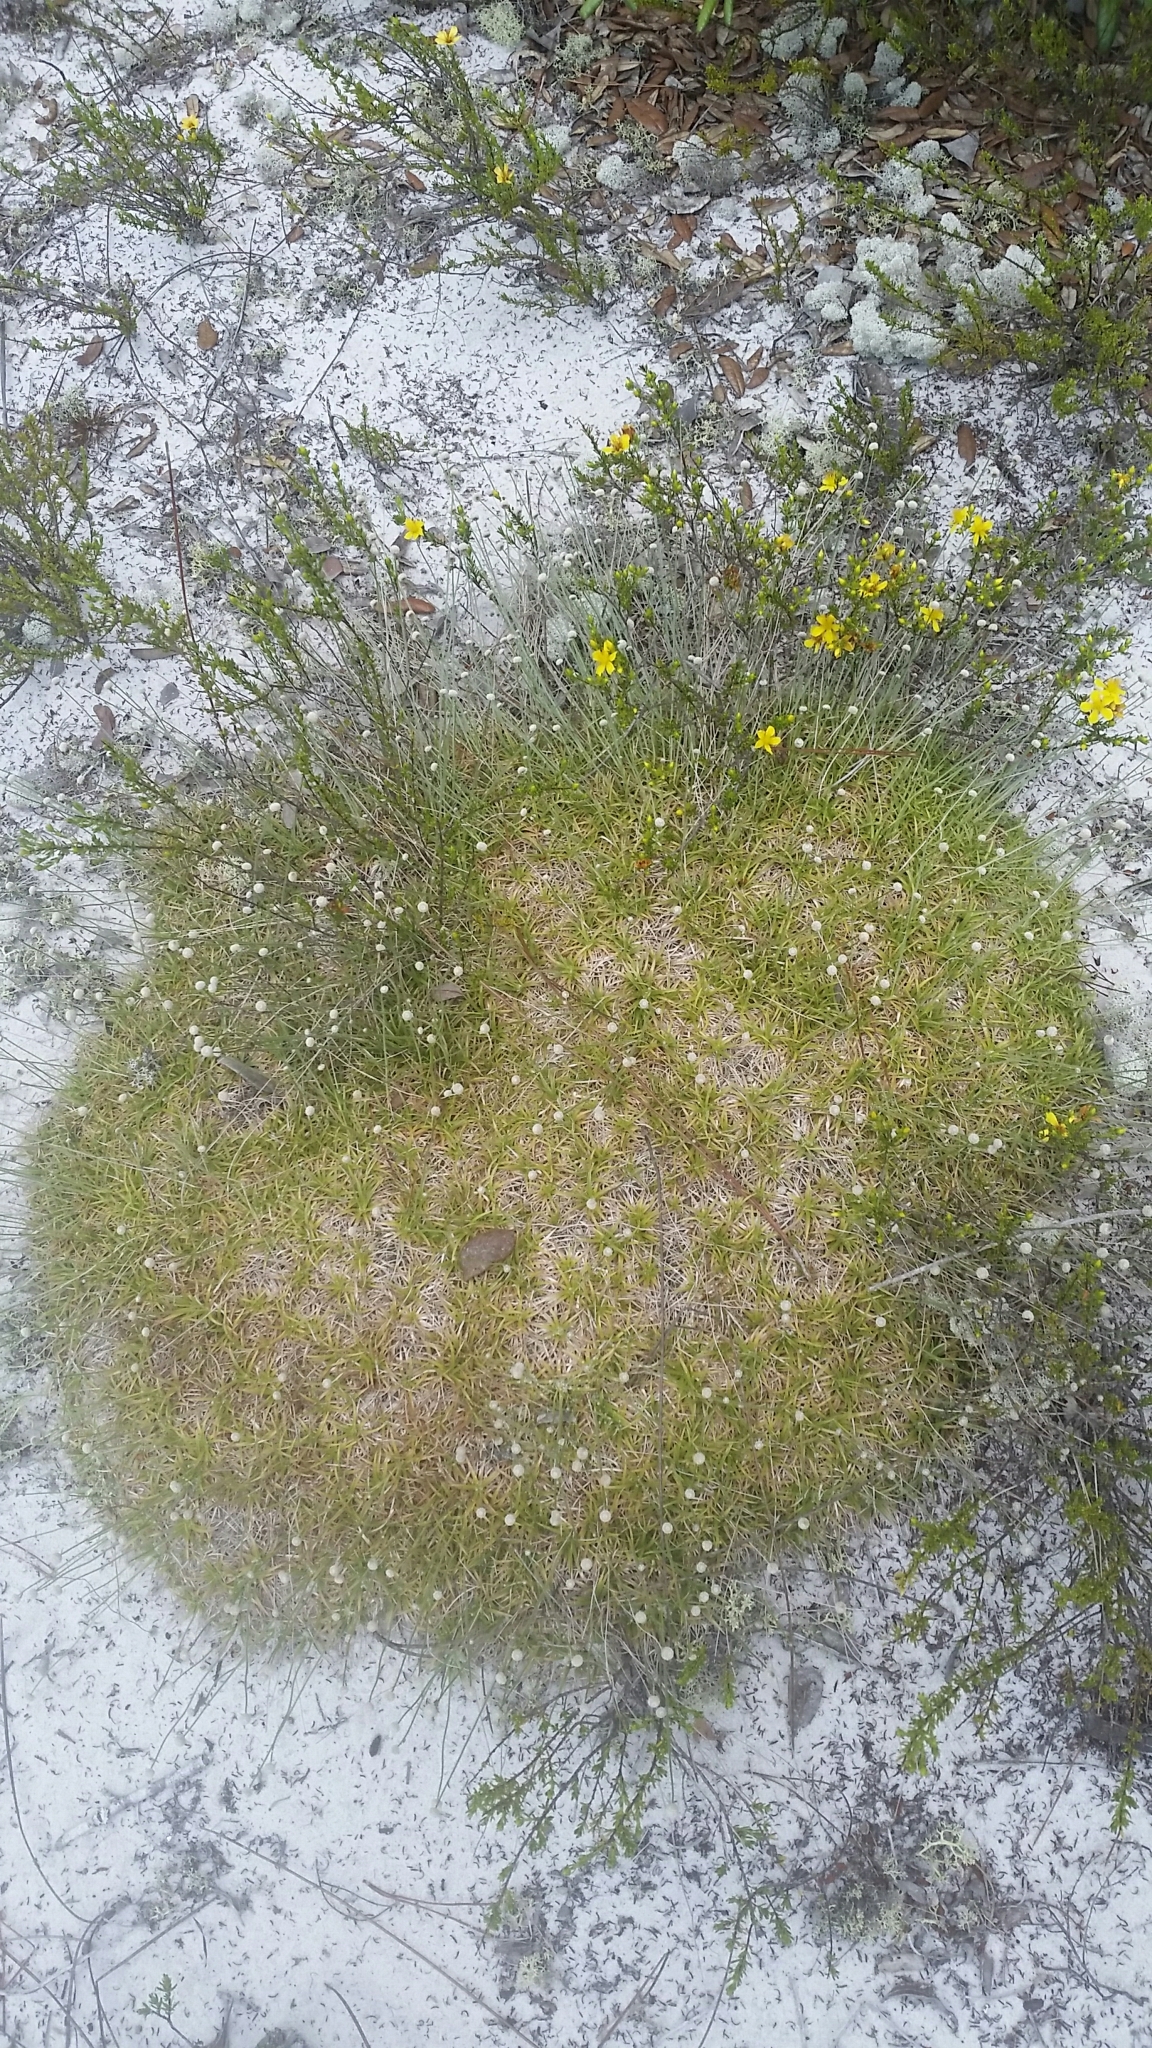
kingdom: Plantae
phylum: Tracheophyta
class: Liliopsida
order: Poales
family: Eriocaulaceae
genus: Paepalanthus
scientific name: Paepalanthus beyrichianus
